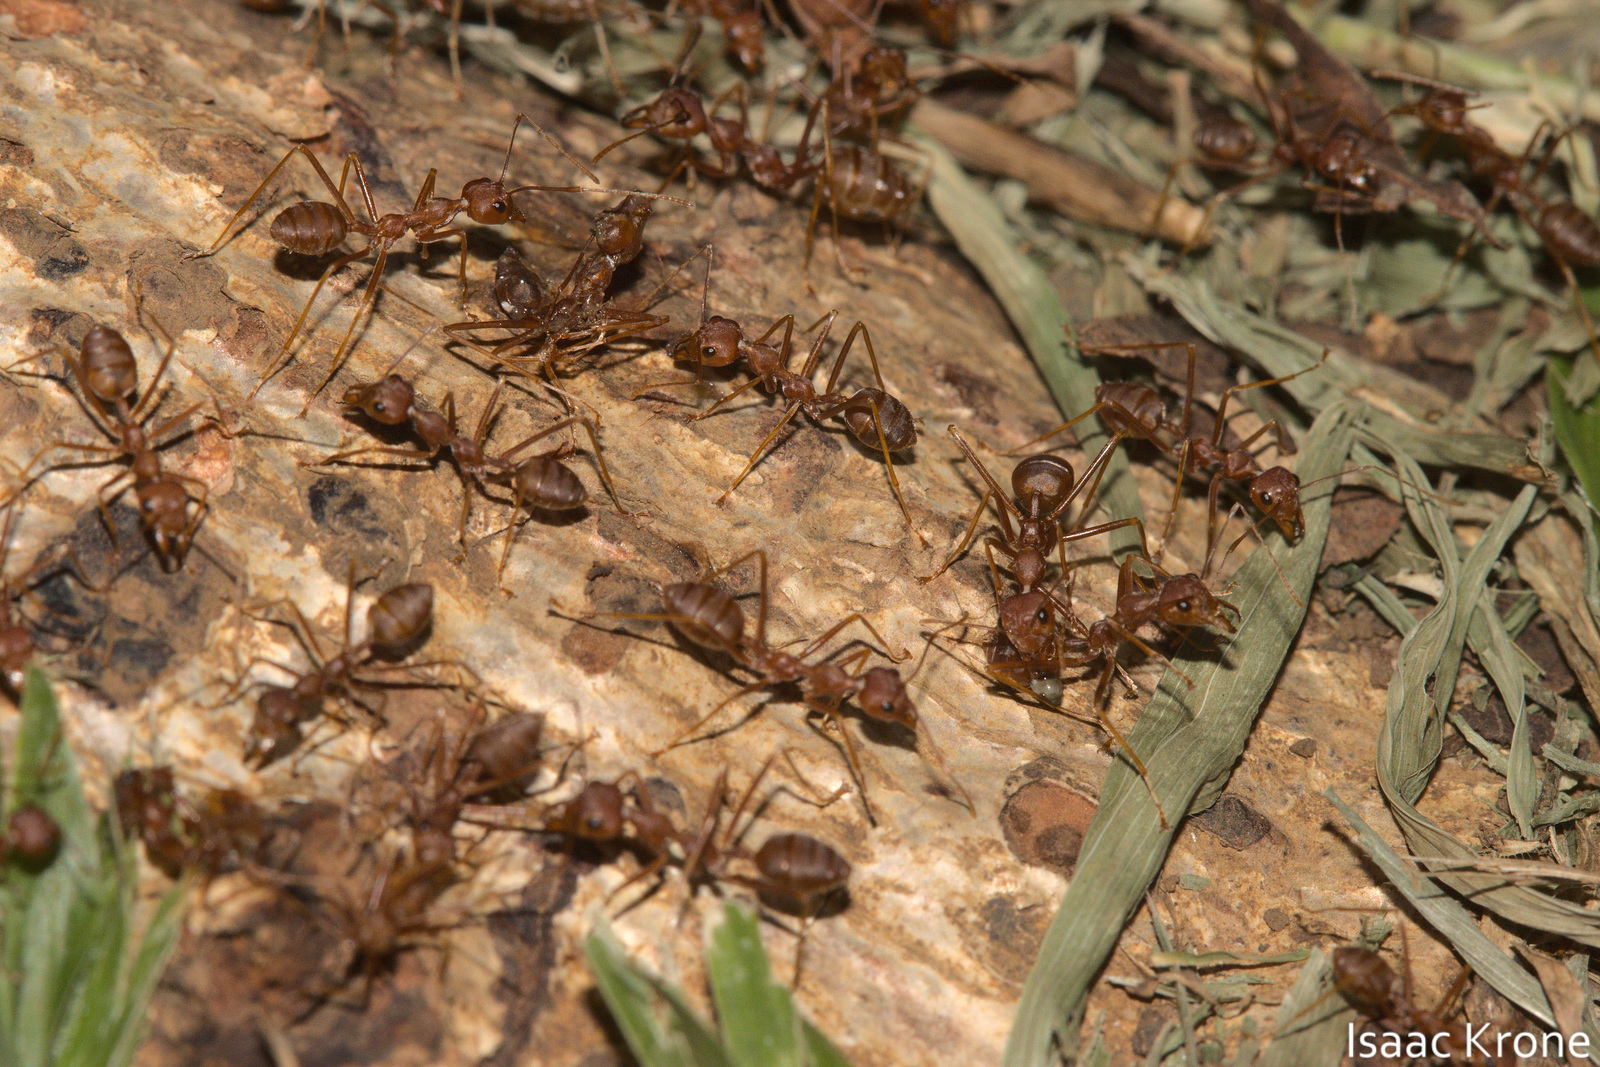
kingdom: Animalia
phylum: Arthropoda
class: Insecta
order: Hymenoptera
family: Formicidae
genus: Oecophylla
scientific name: Oecophylla smaragdina
